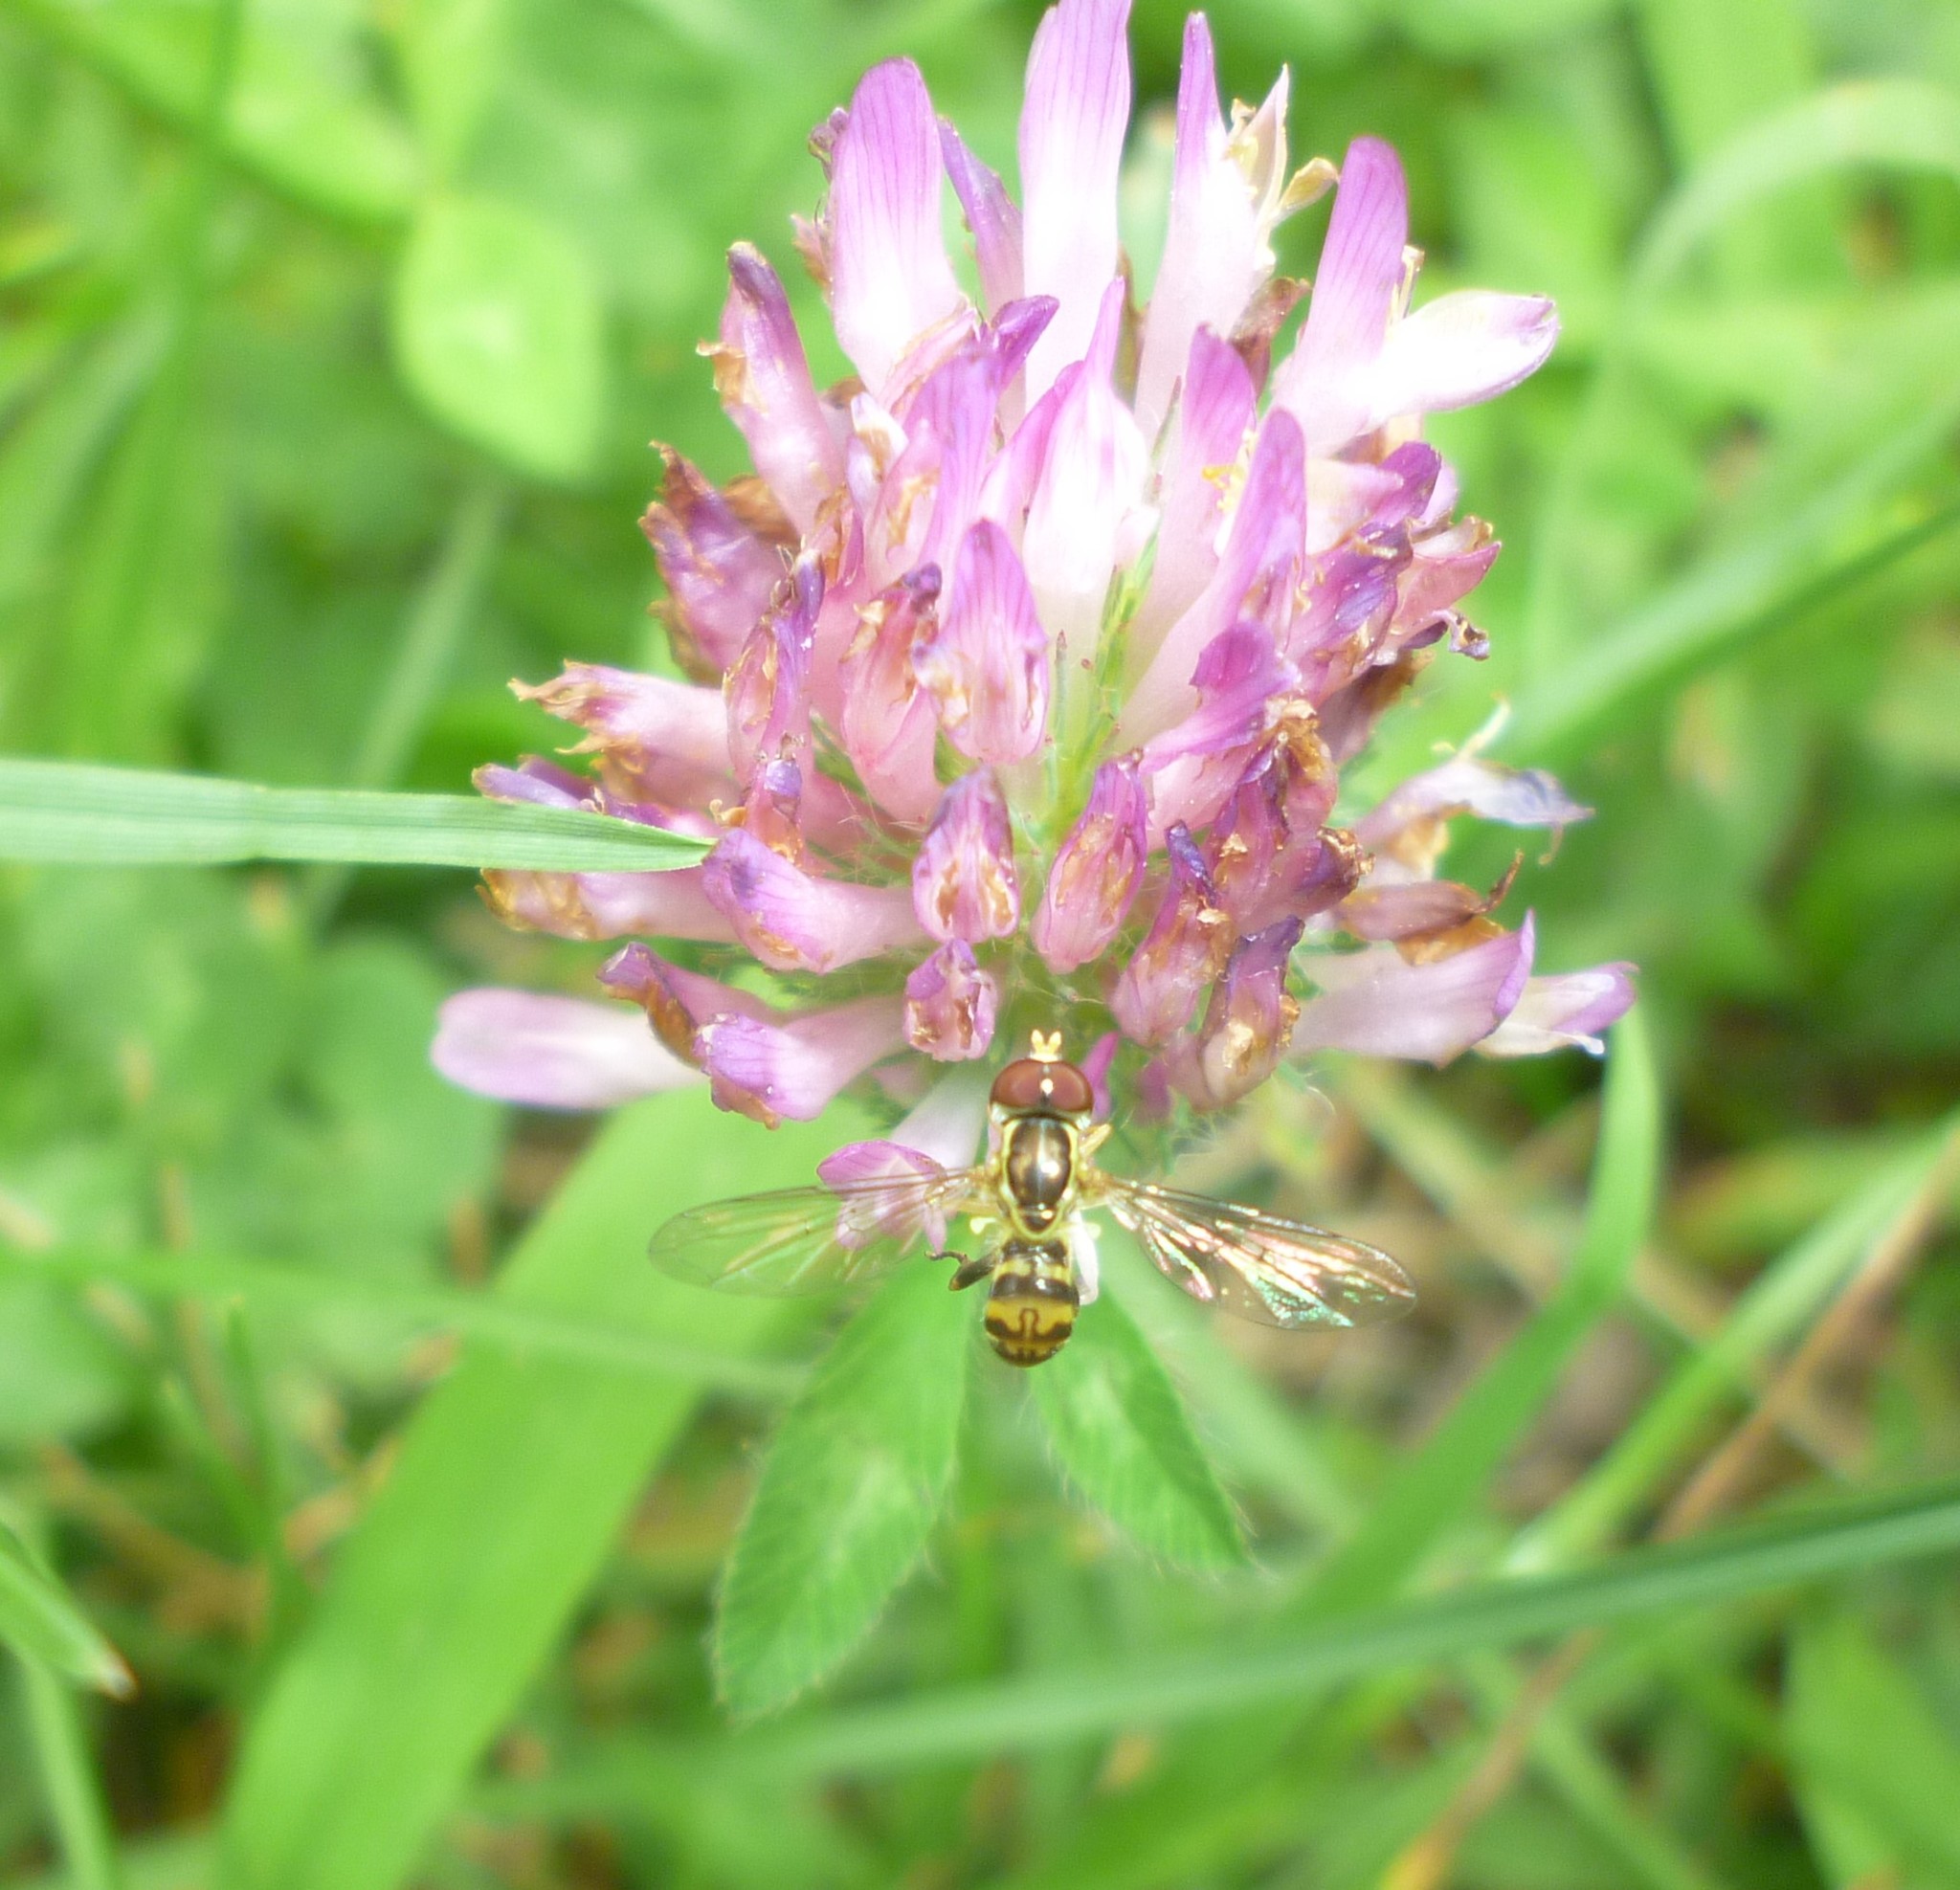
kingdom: Plantae
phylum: Tracheophyta
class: Magnoliopsida
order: Fabales
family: Fabaceae
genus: Trifolium
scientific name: Trifolium pratense
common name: Red clover
